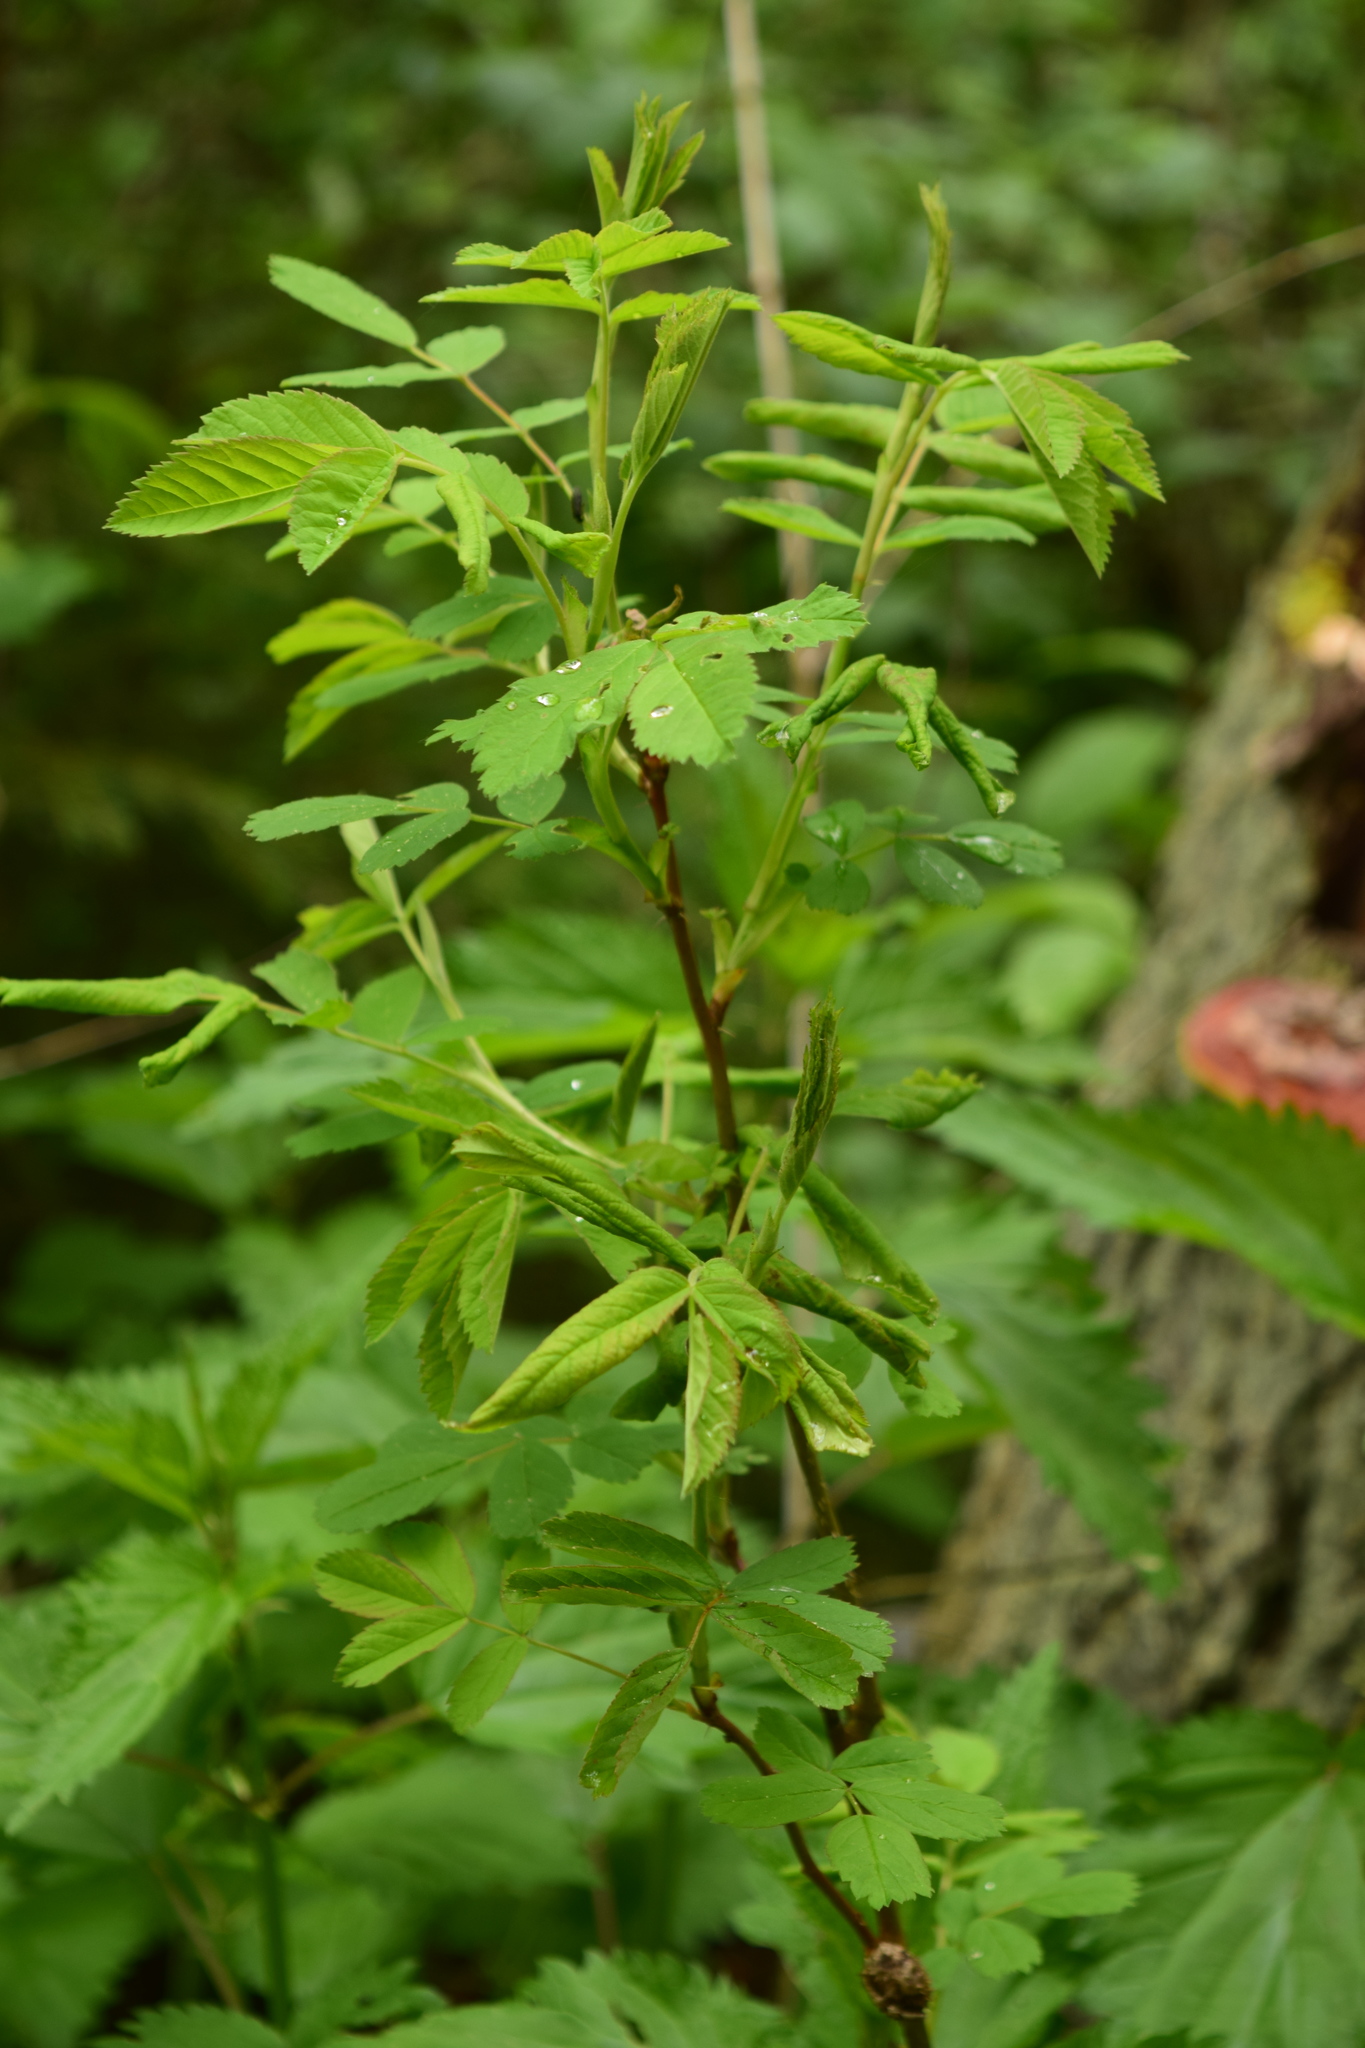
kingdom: Plantae
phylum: Tracheophyta
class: Magnoliopsida
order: Rosales
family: Rosaceae
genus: Rosa
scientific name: Rosa
